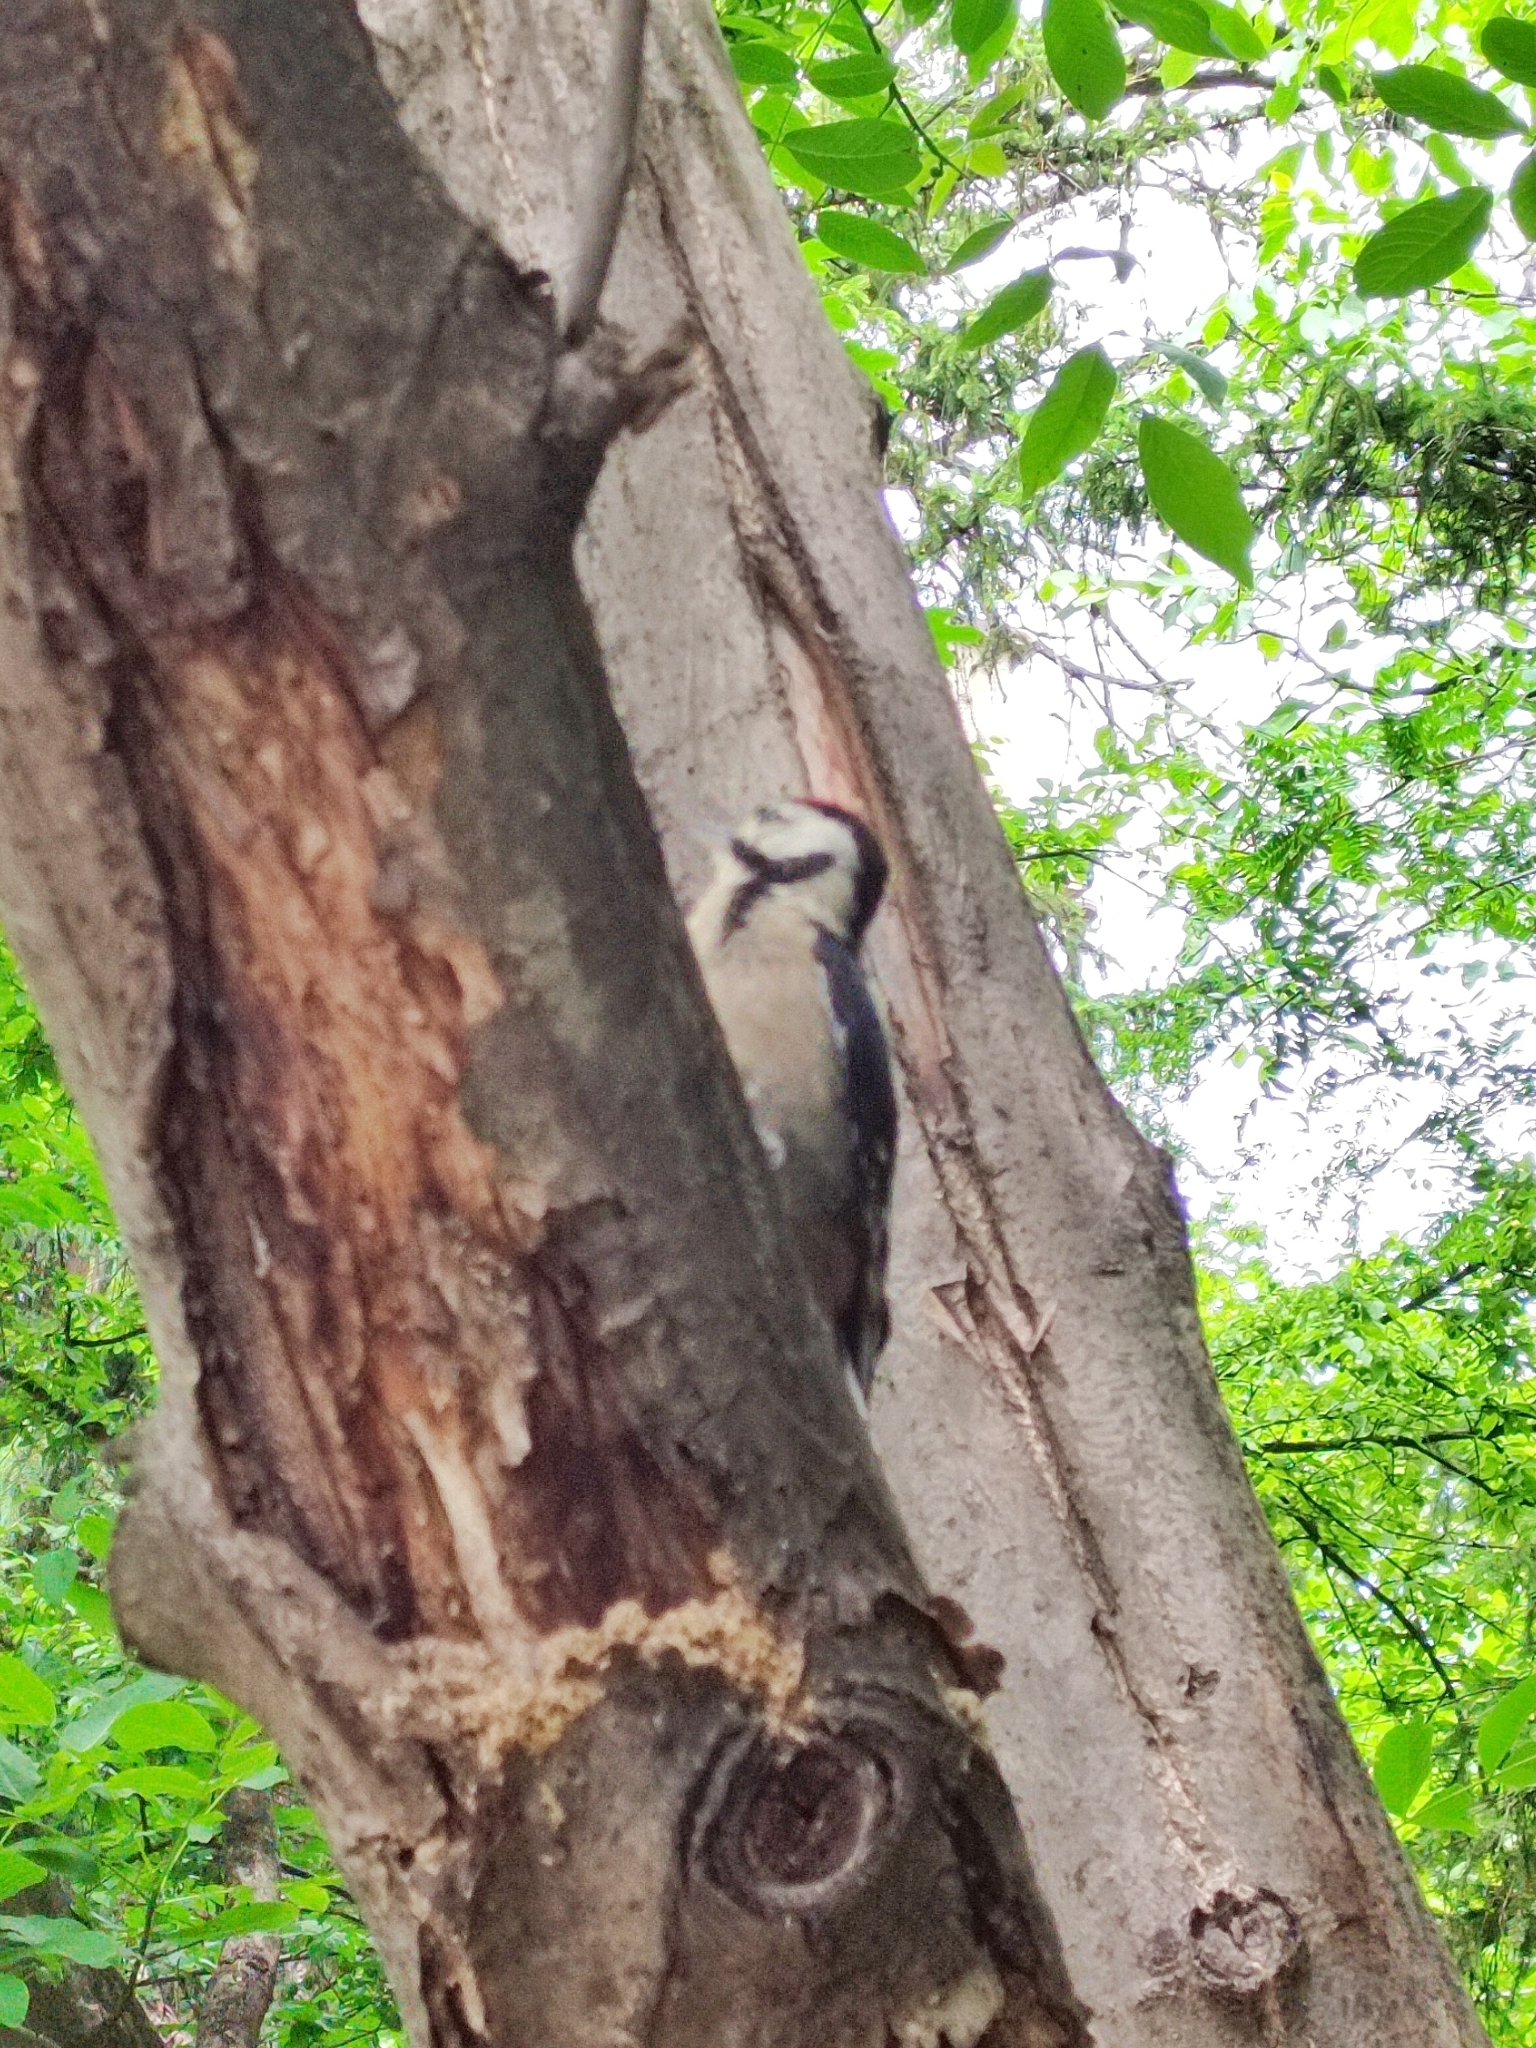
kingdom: Animalia
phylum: Chordata
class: Aves
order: Piciformes
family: Picidae
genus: Dryobates
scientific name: Dryobates minor
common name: Lesser spotted woodpecker
